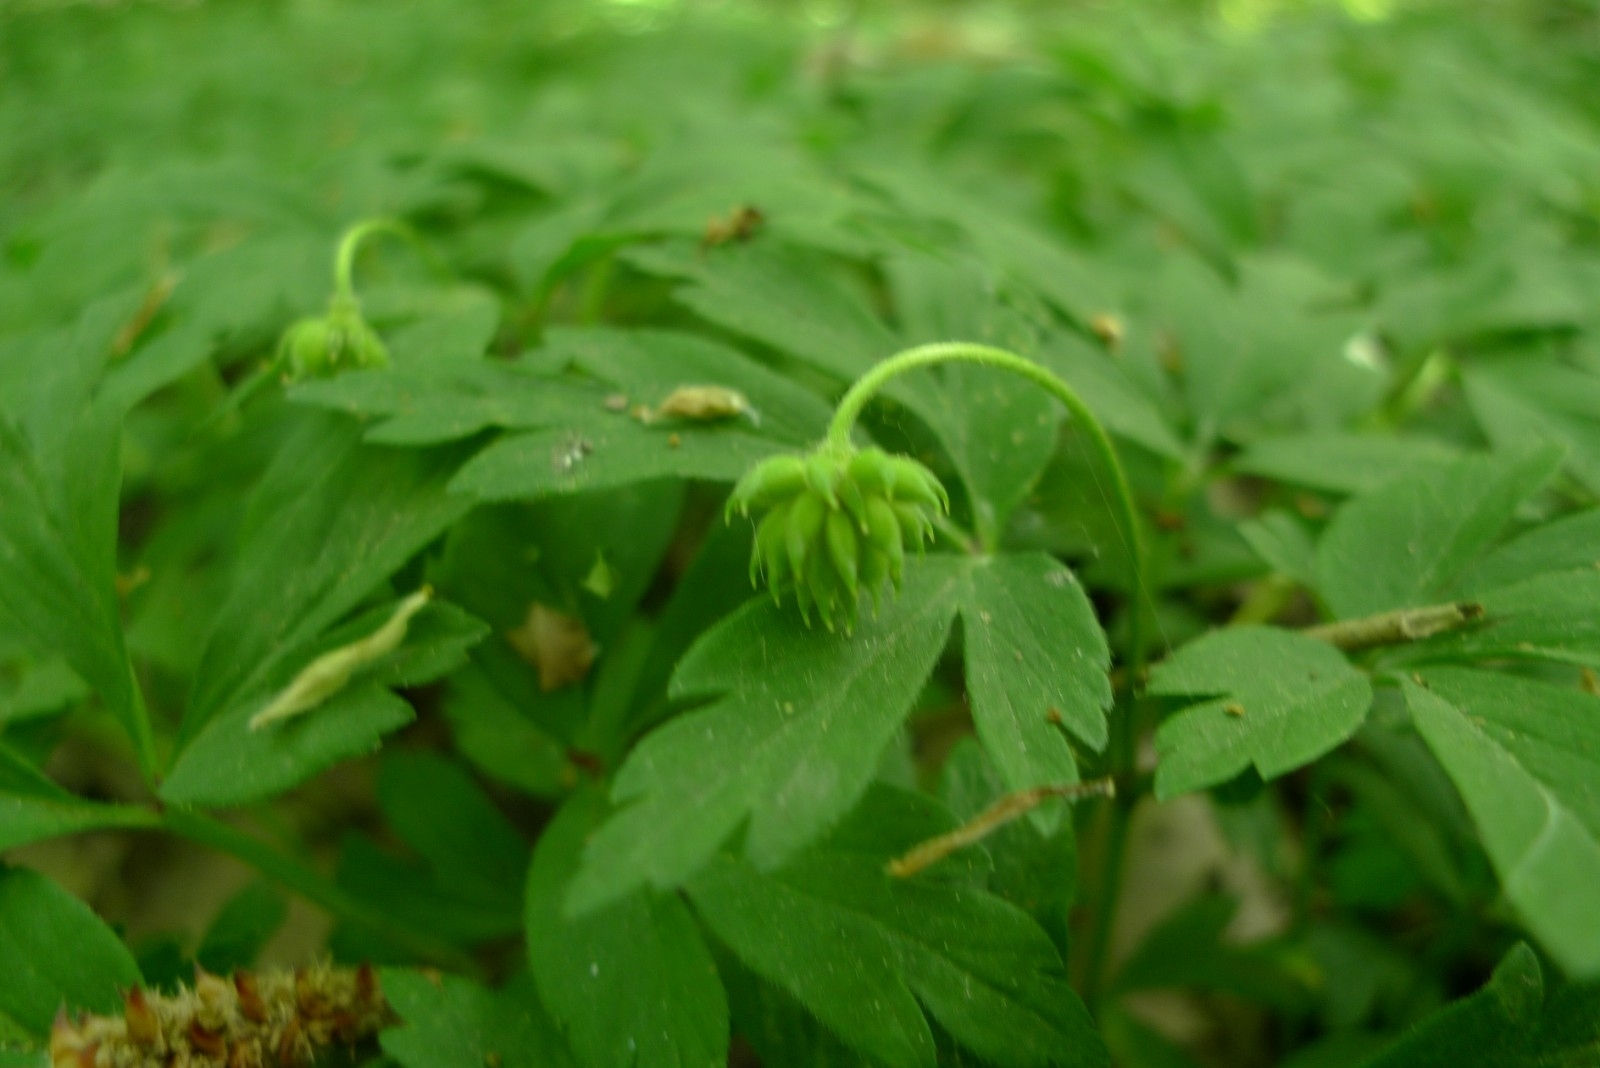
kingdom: Plantae
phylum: Tracheophyta
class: Magnoliopsida
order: Ranunculales
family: Ranunculaceae
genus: Anemone
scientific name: Anemone nemorosa
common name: Wood anemone
